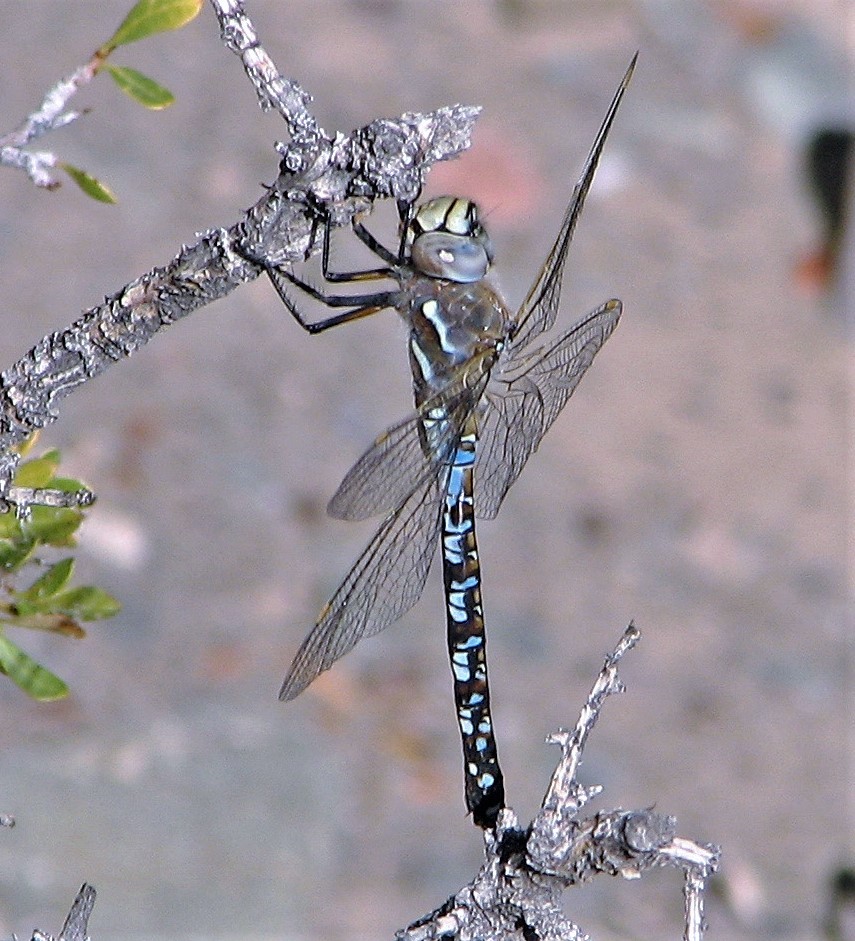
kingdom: Animalia
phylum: Arthropoda
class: Insecta
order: Odonata
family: Aeshnidae
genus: Rhionaeschna
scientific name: Rhionaeschna variegata
